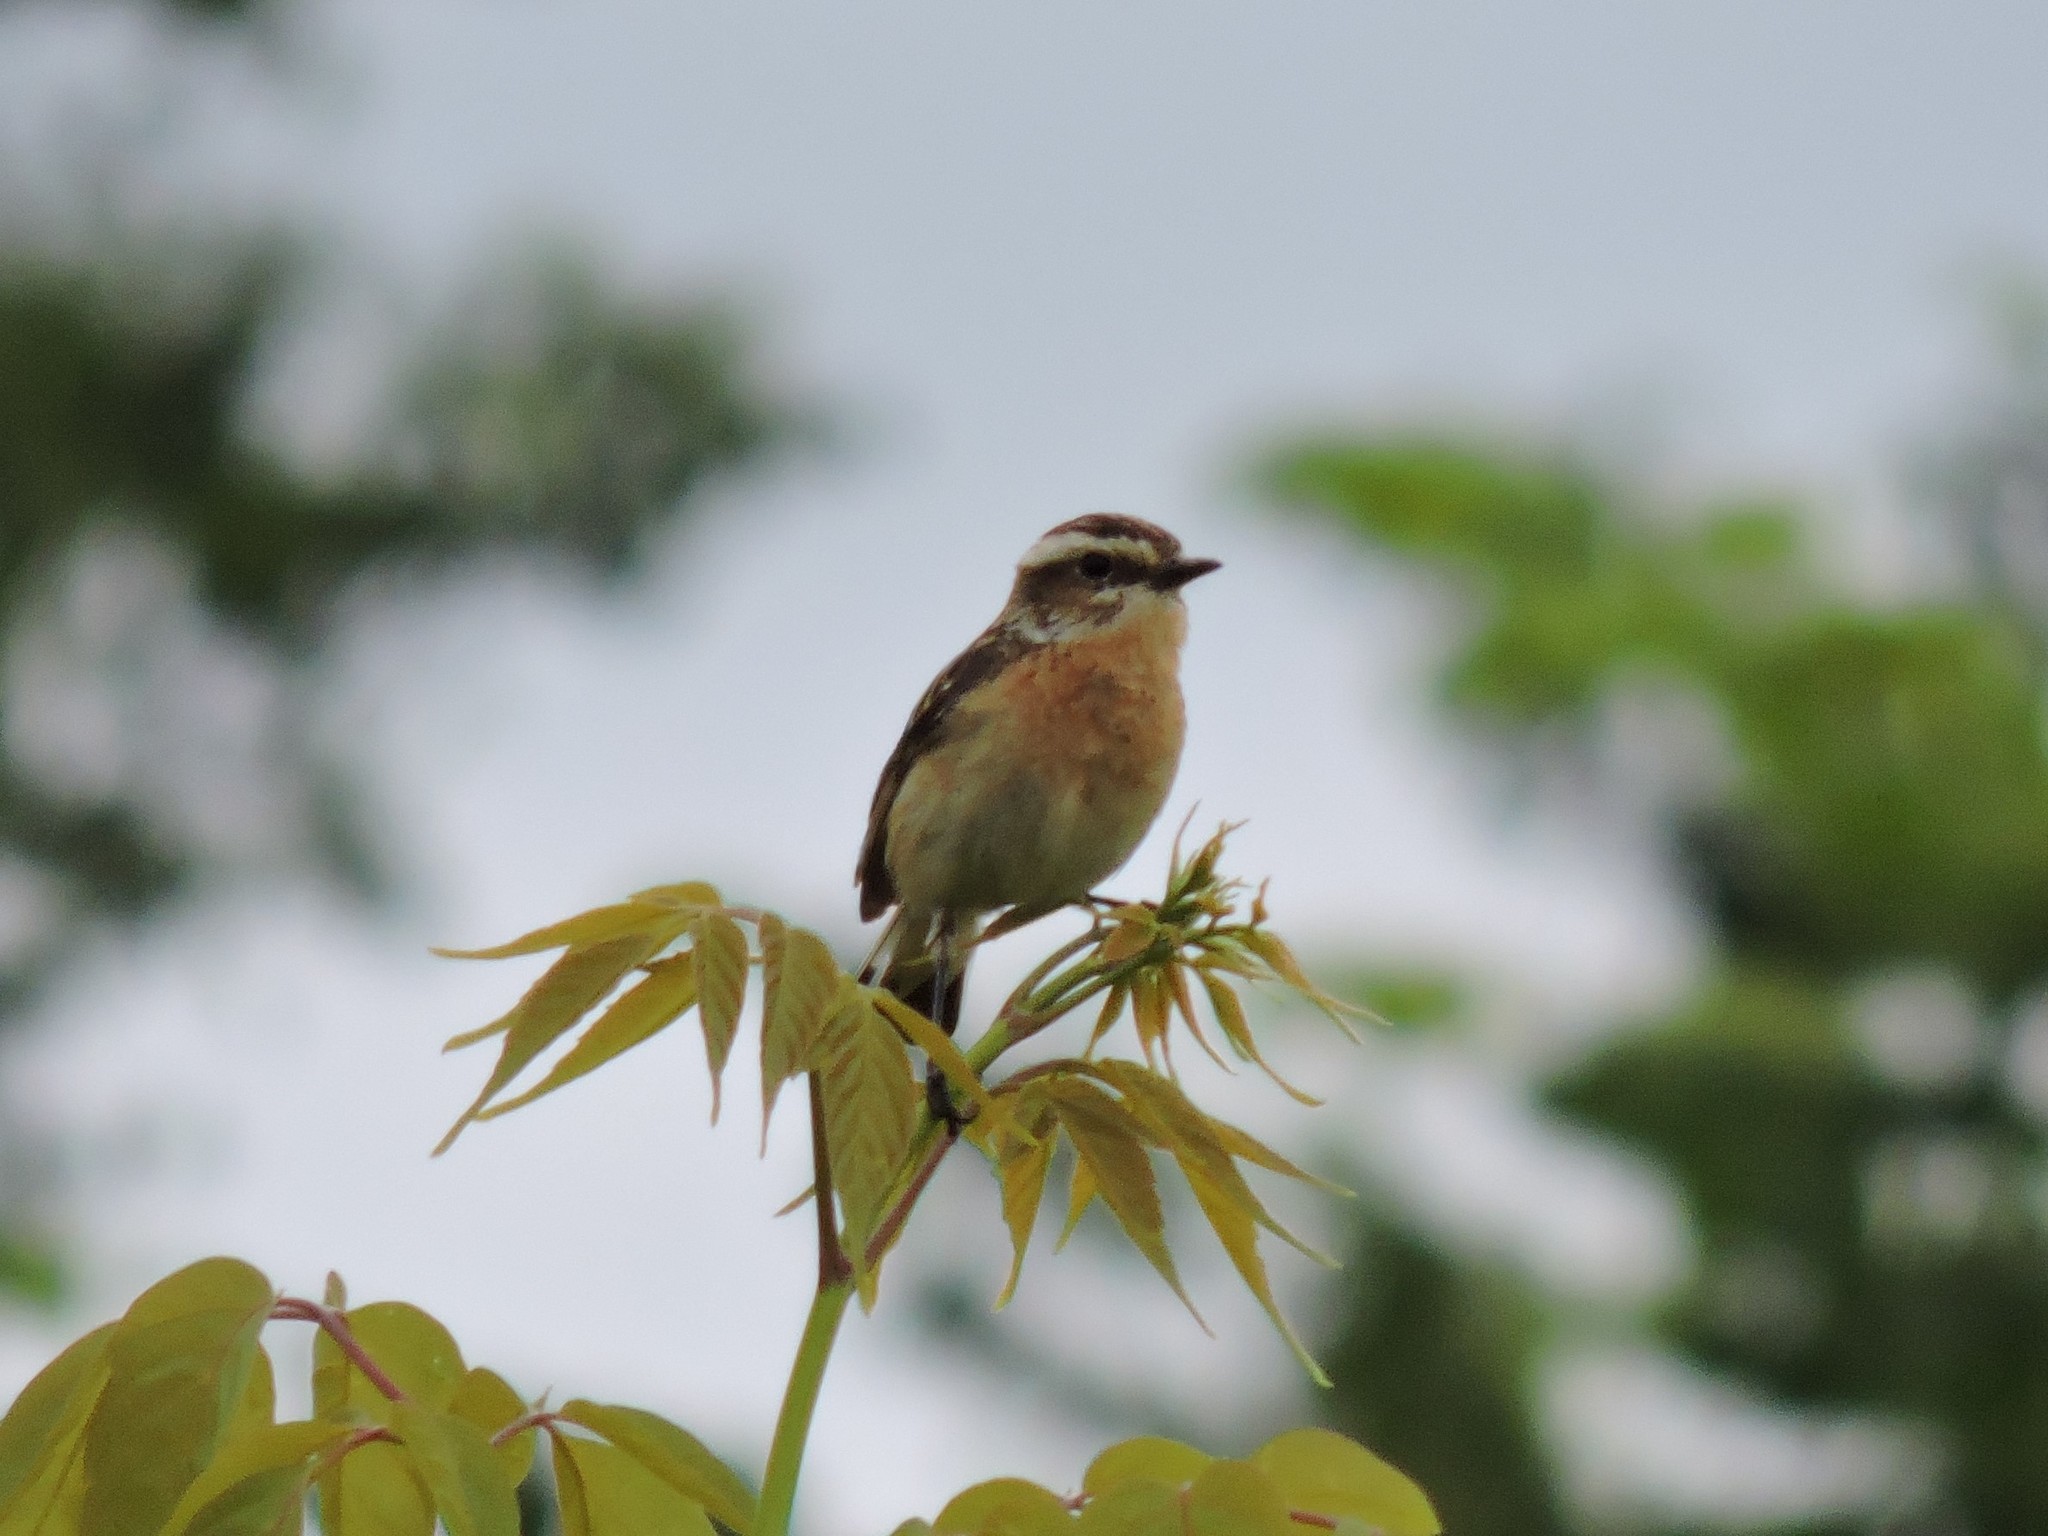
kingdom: Animalia
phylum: Chordata
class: Aves
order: Passeriformes
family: Muscicapidae
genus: Saxicola
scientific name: Saxicola rubetra
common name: Whinchat
